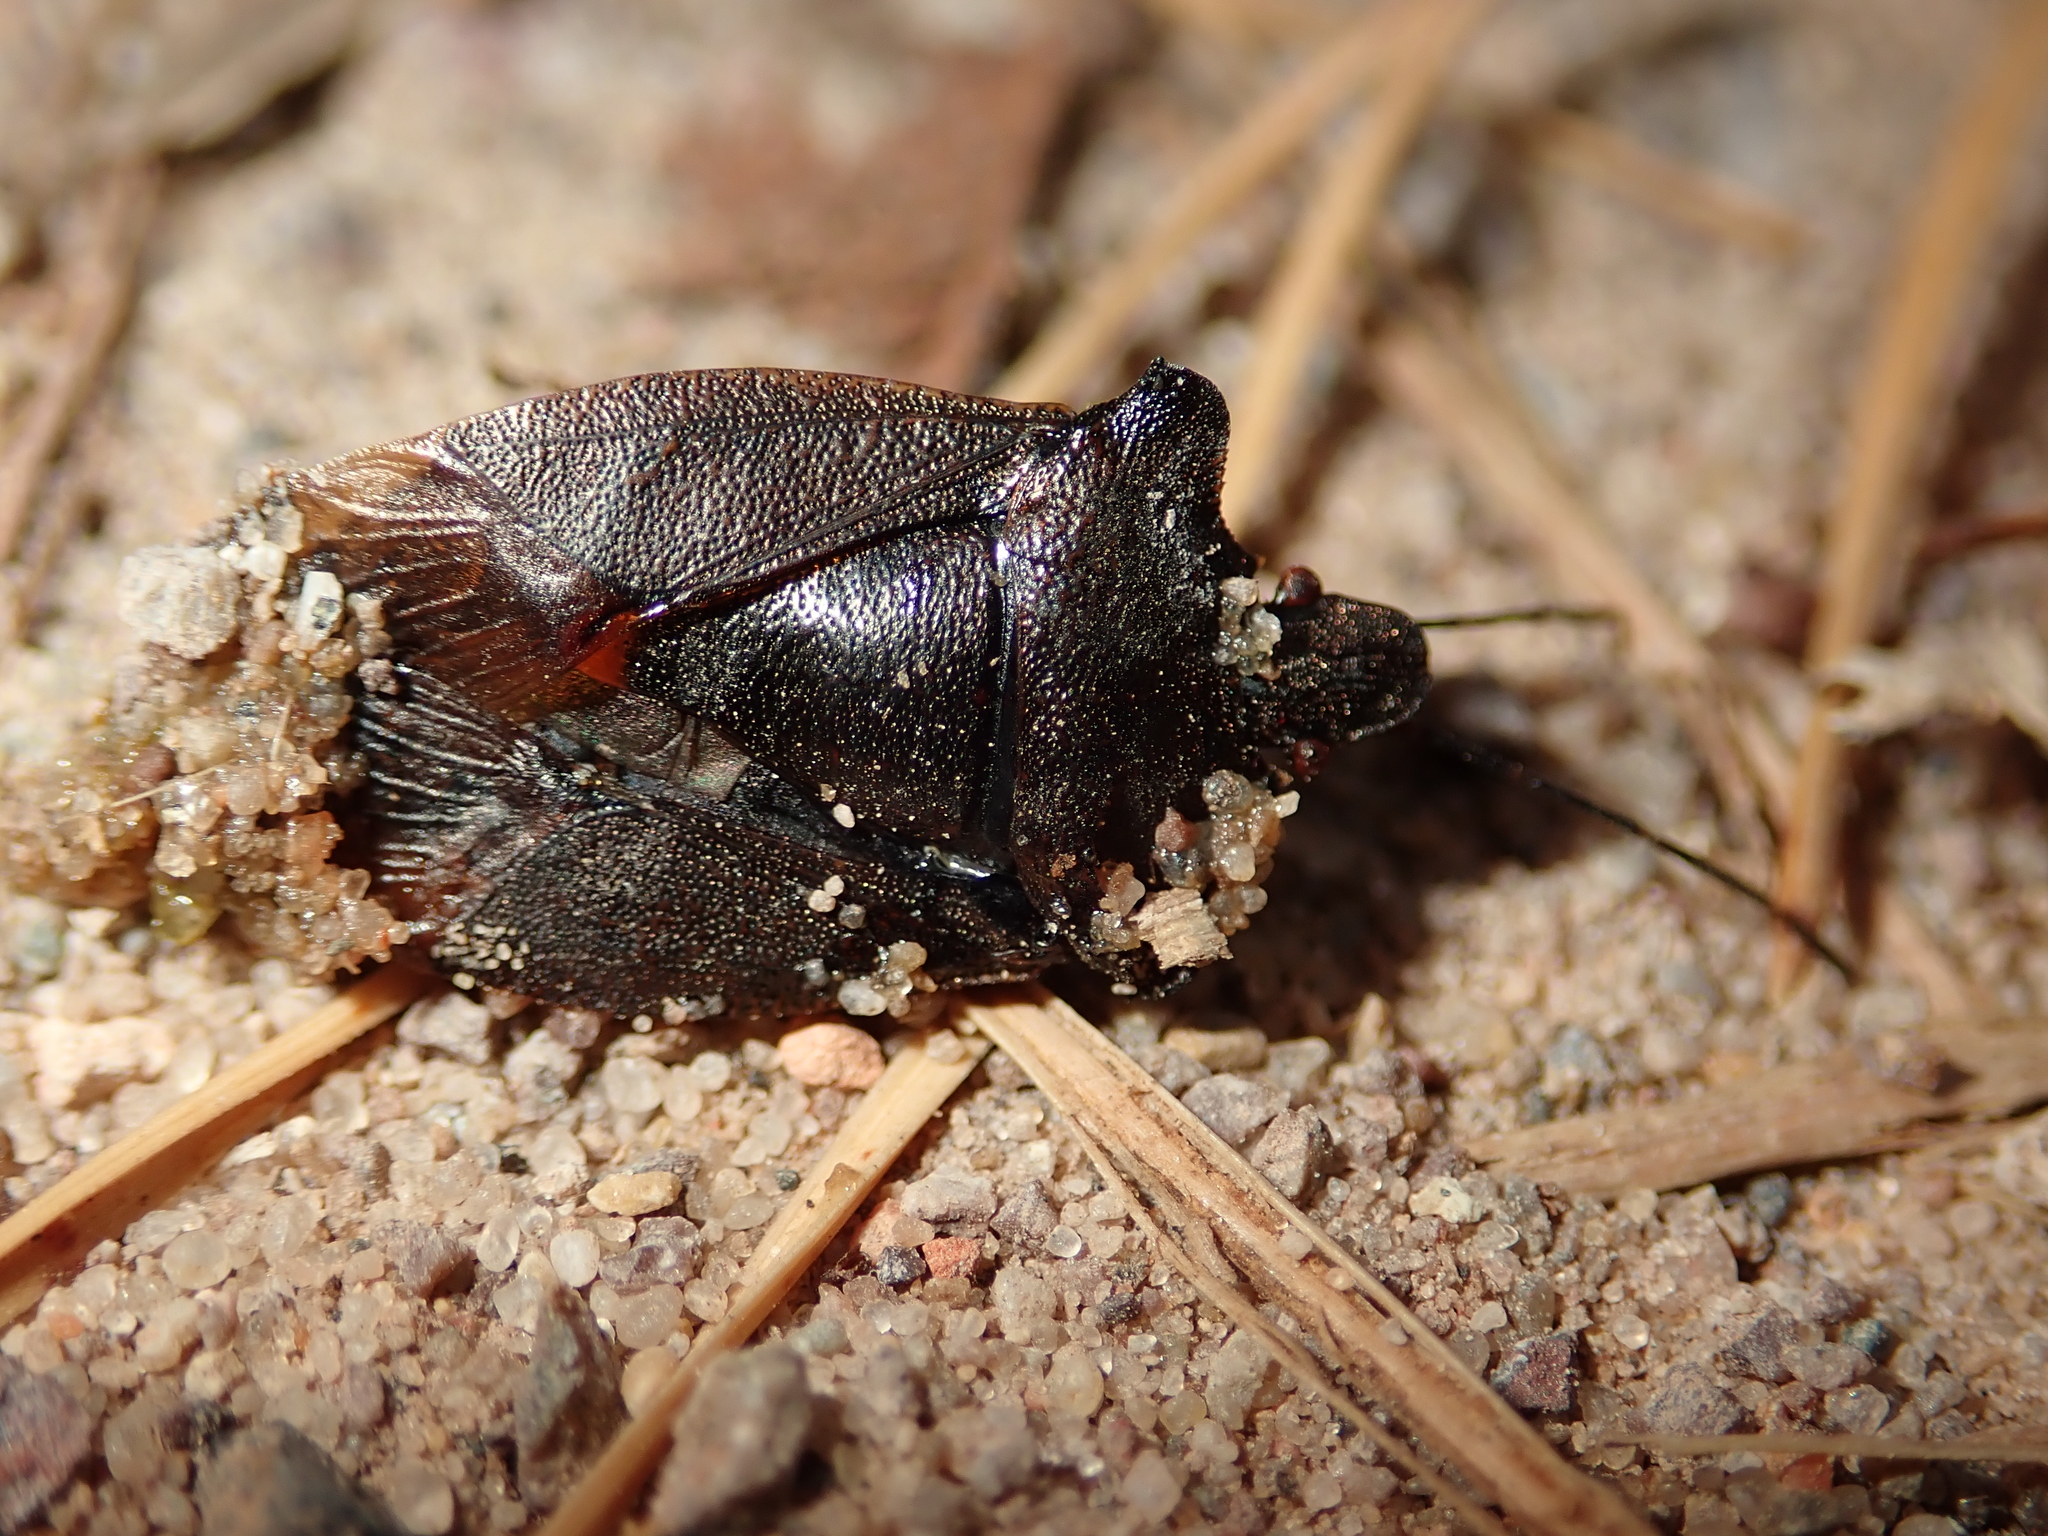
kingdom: Animalia
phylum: Arthropoda
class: Insecta
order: Hemiptera
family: Pentatomidae
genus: Pentatoma
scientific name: Pentatoma rufipes
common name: Forest bug
